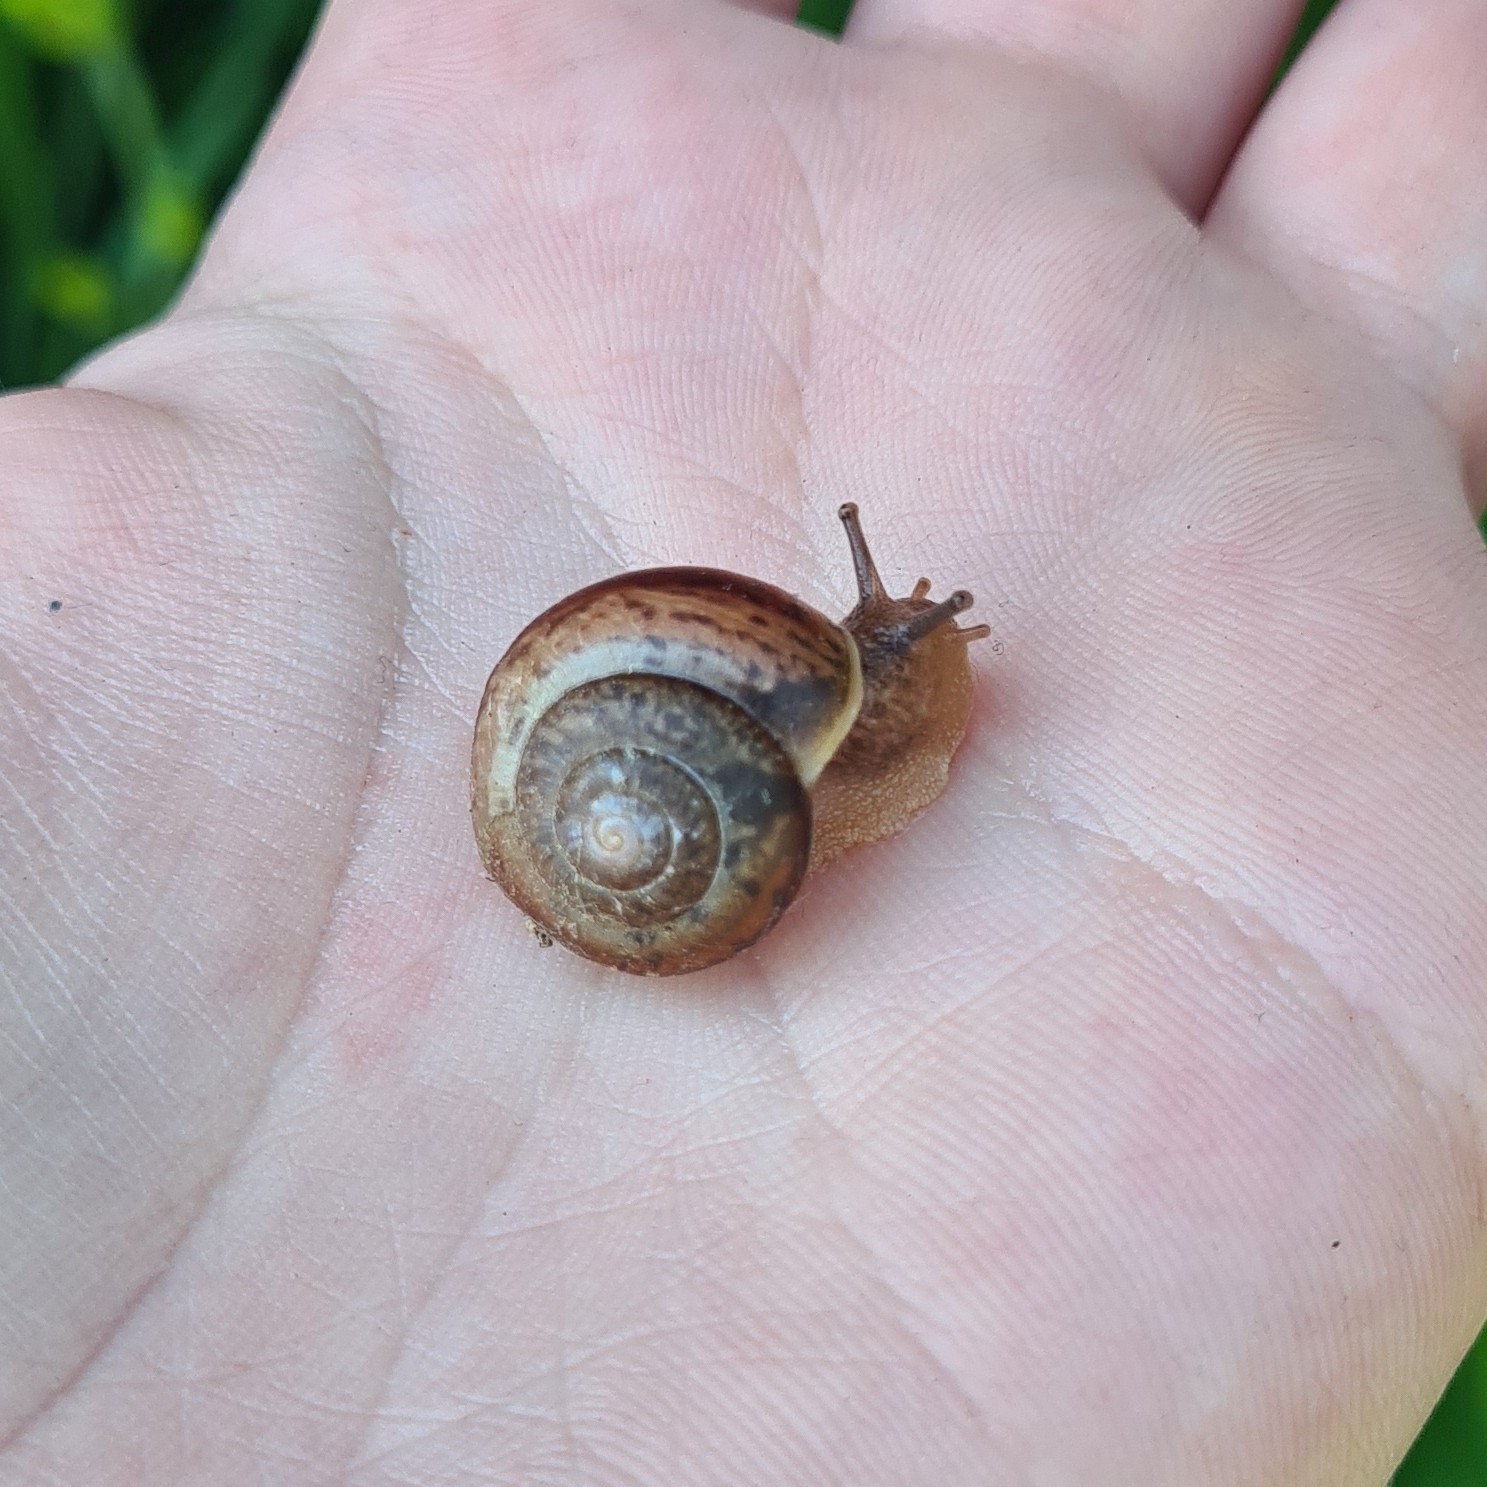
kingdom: Animalia
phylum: Mollusca
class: Gastropoda
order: Stylommatophora
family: Camaenidae
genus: Fruticicola
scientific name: Fruticicola fruticum
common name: Bush snail
